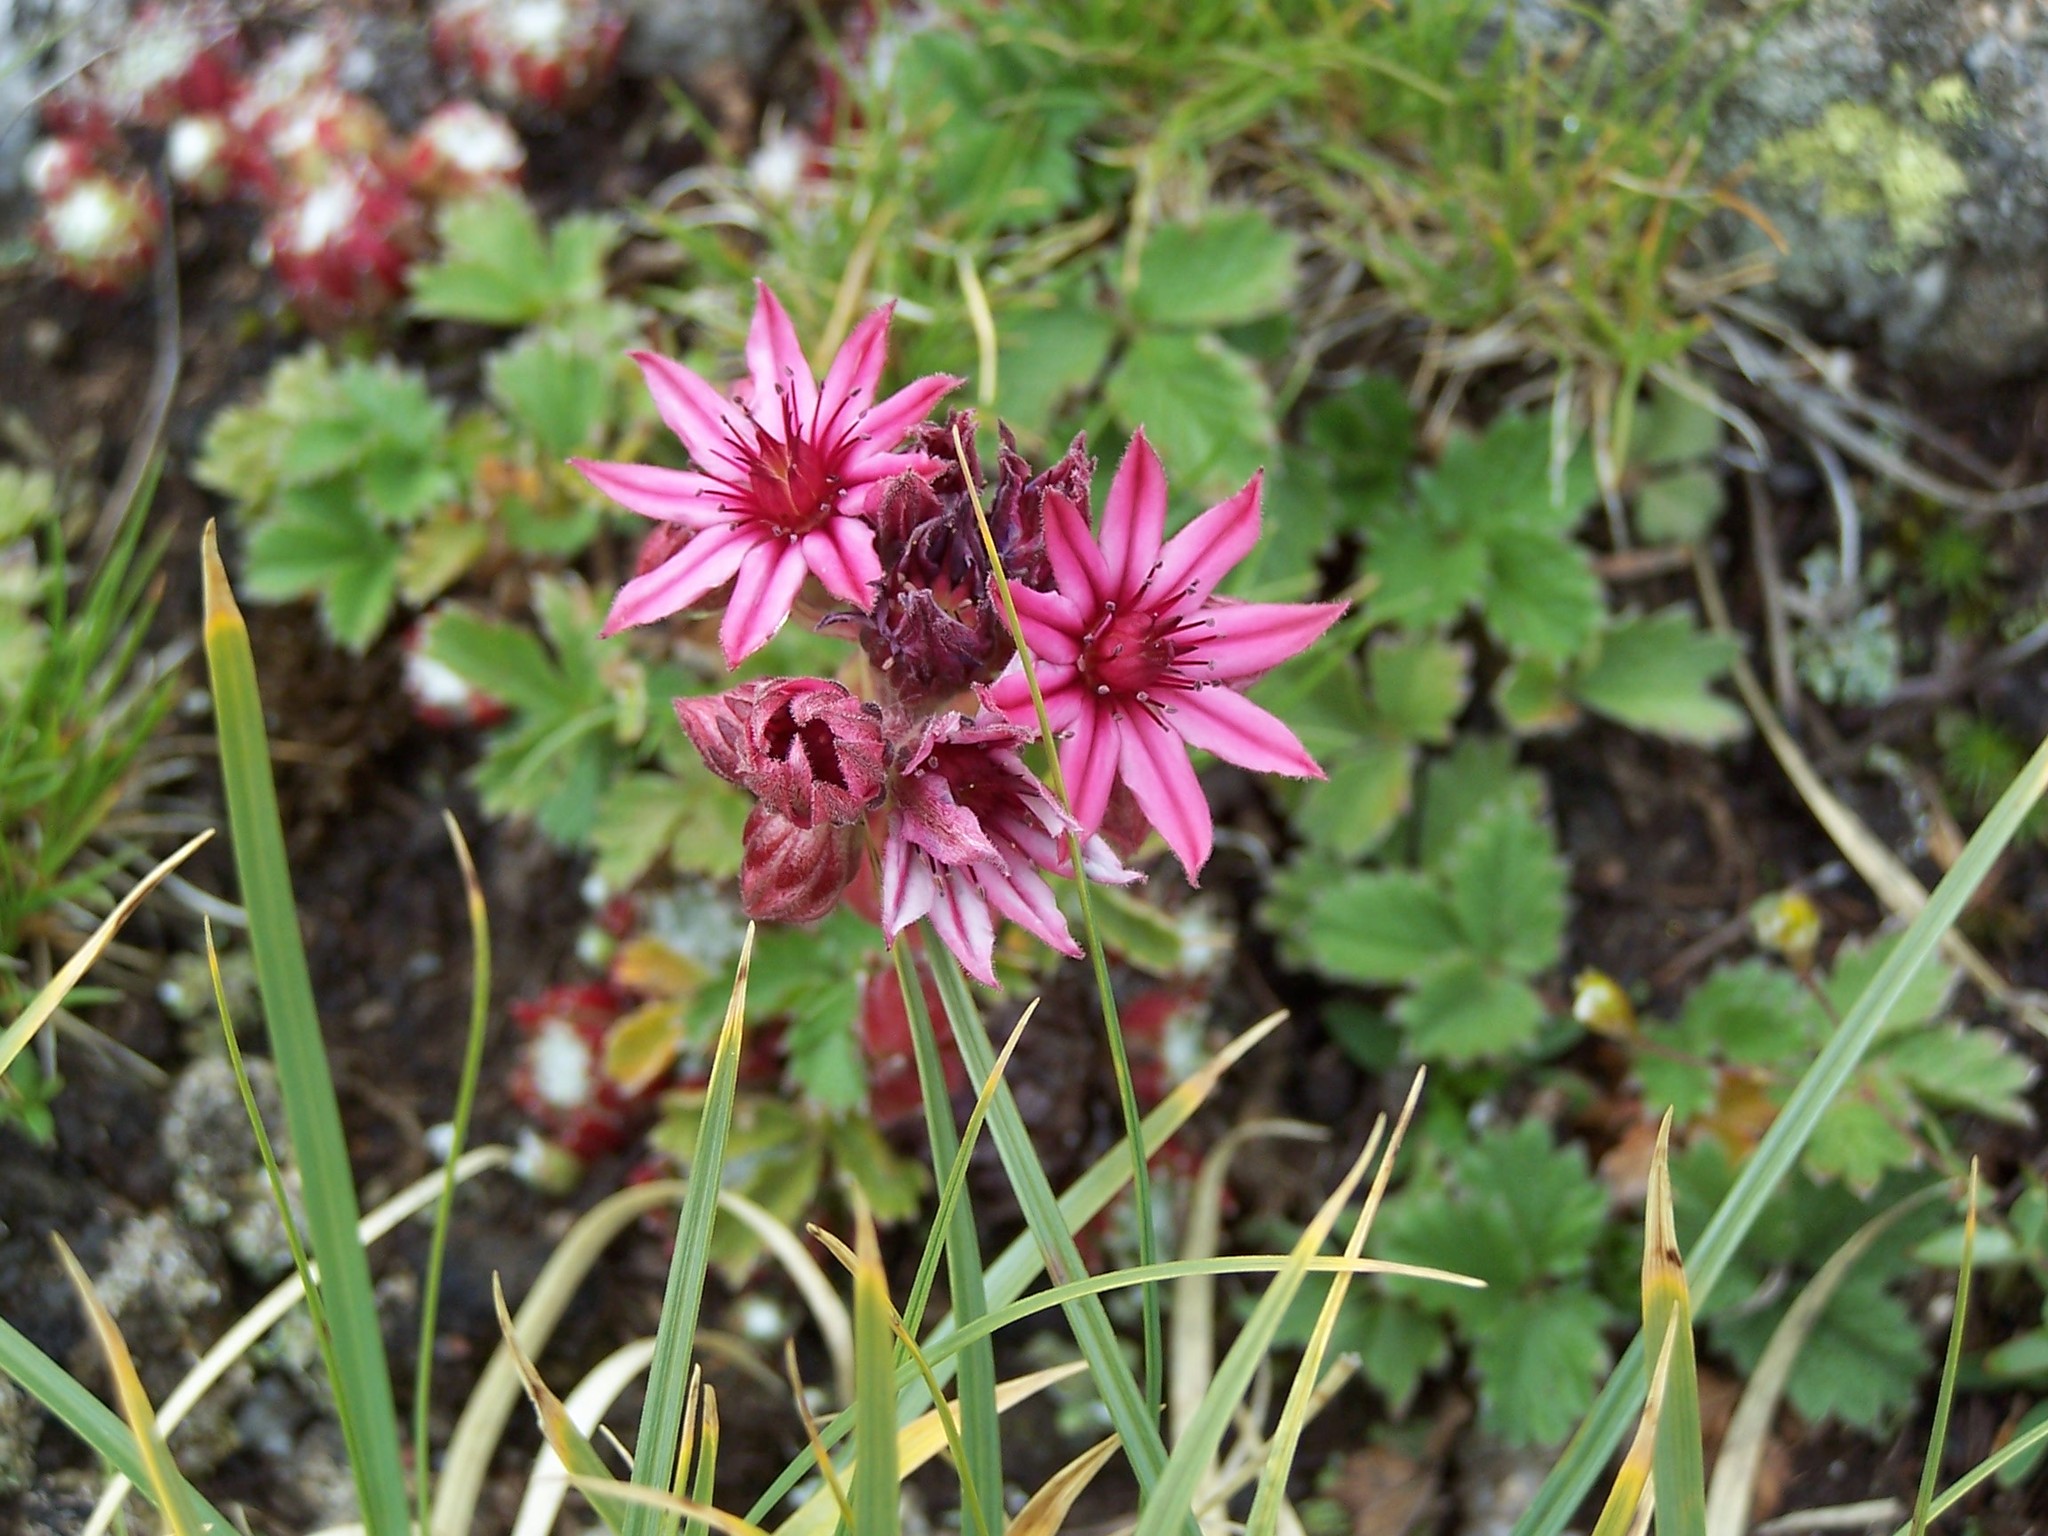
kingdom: Plantae
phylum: Tracheophyta
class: Magnoliopsida
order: Saxifragales
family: Crassulaceae
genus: Sempervivum
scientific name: Sempervivum arachnoideum
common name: Cobweb house-leek
